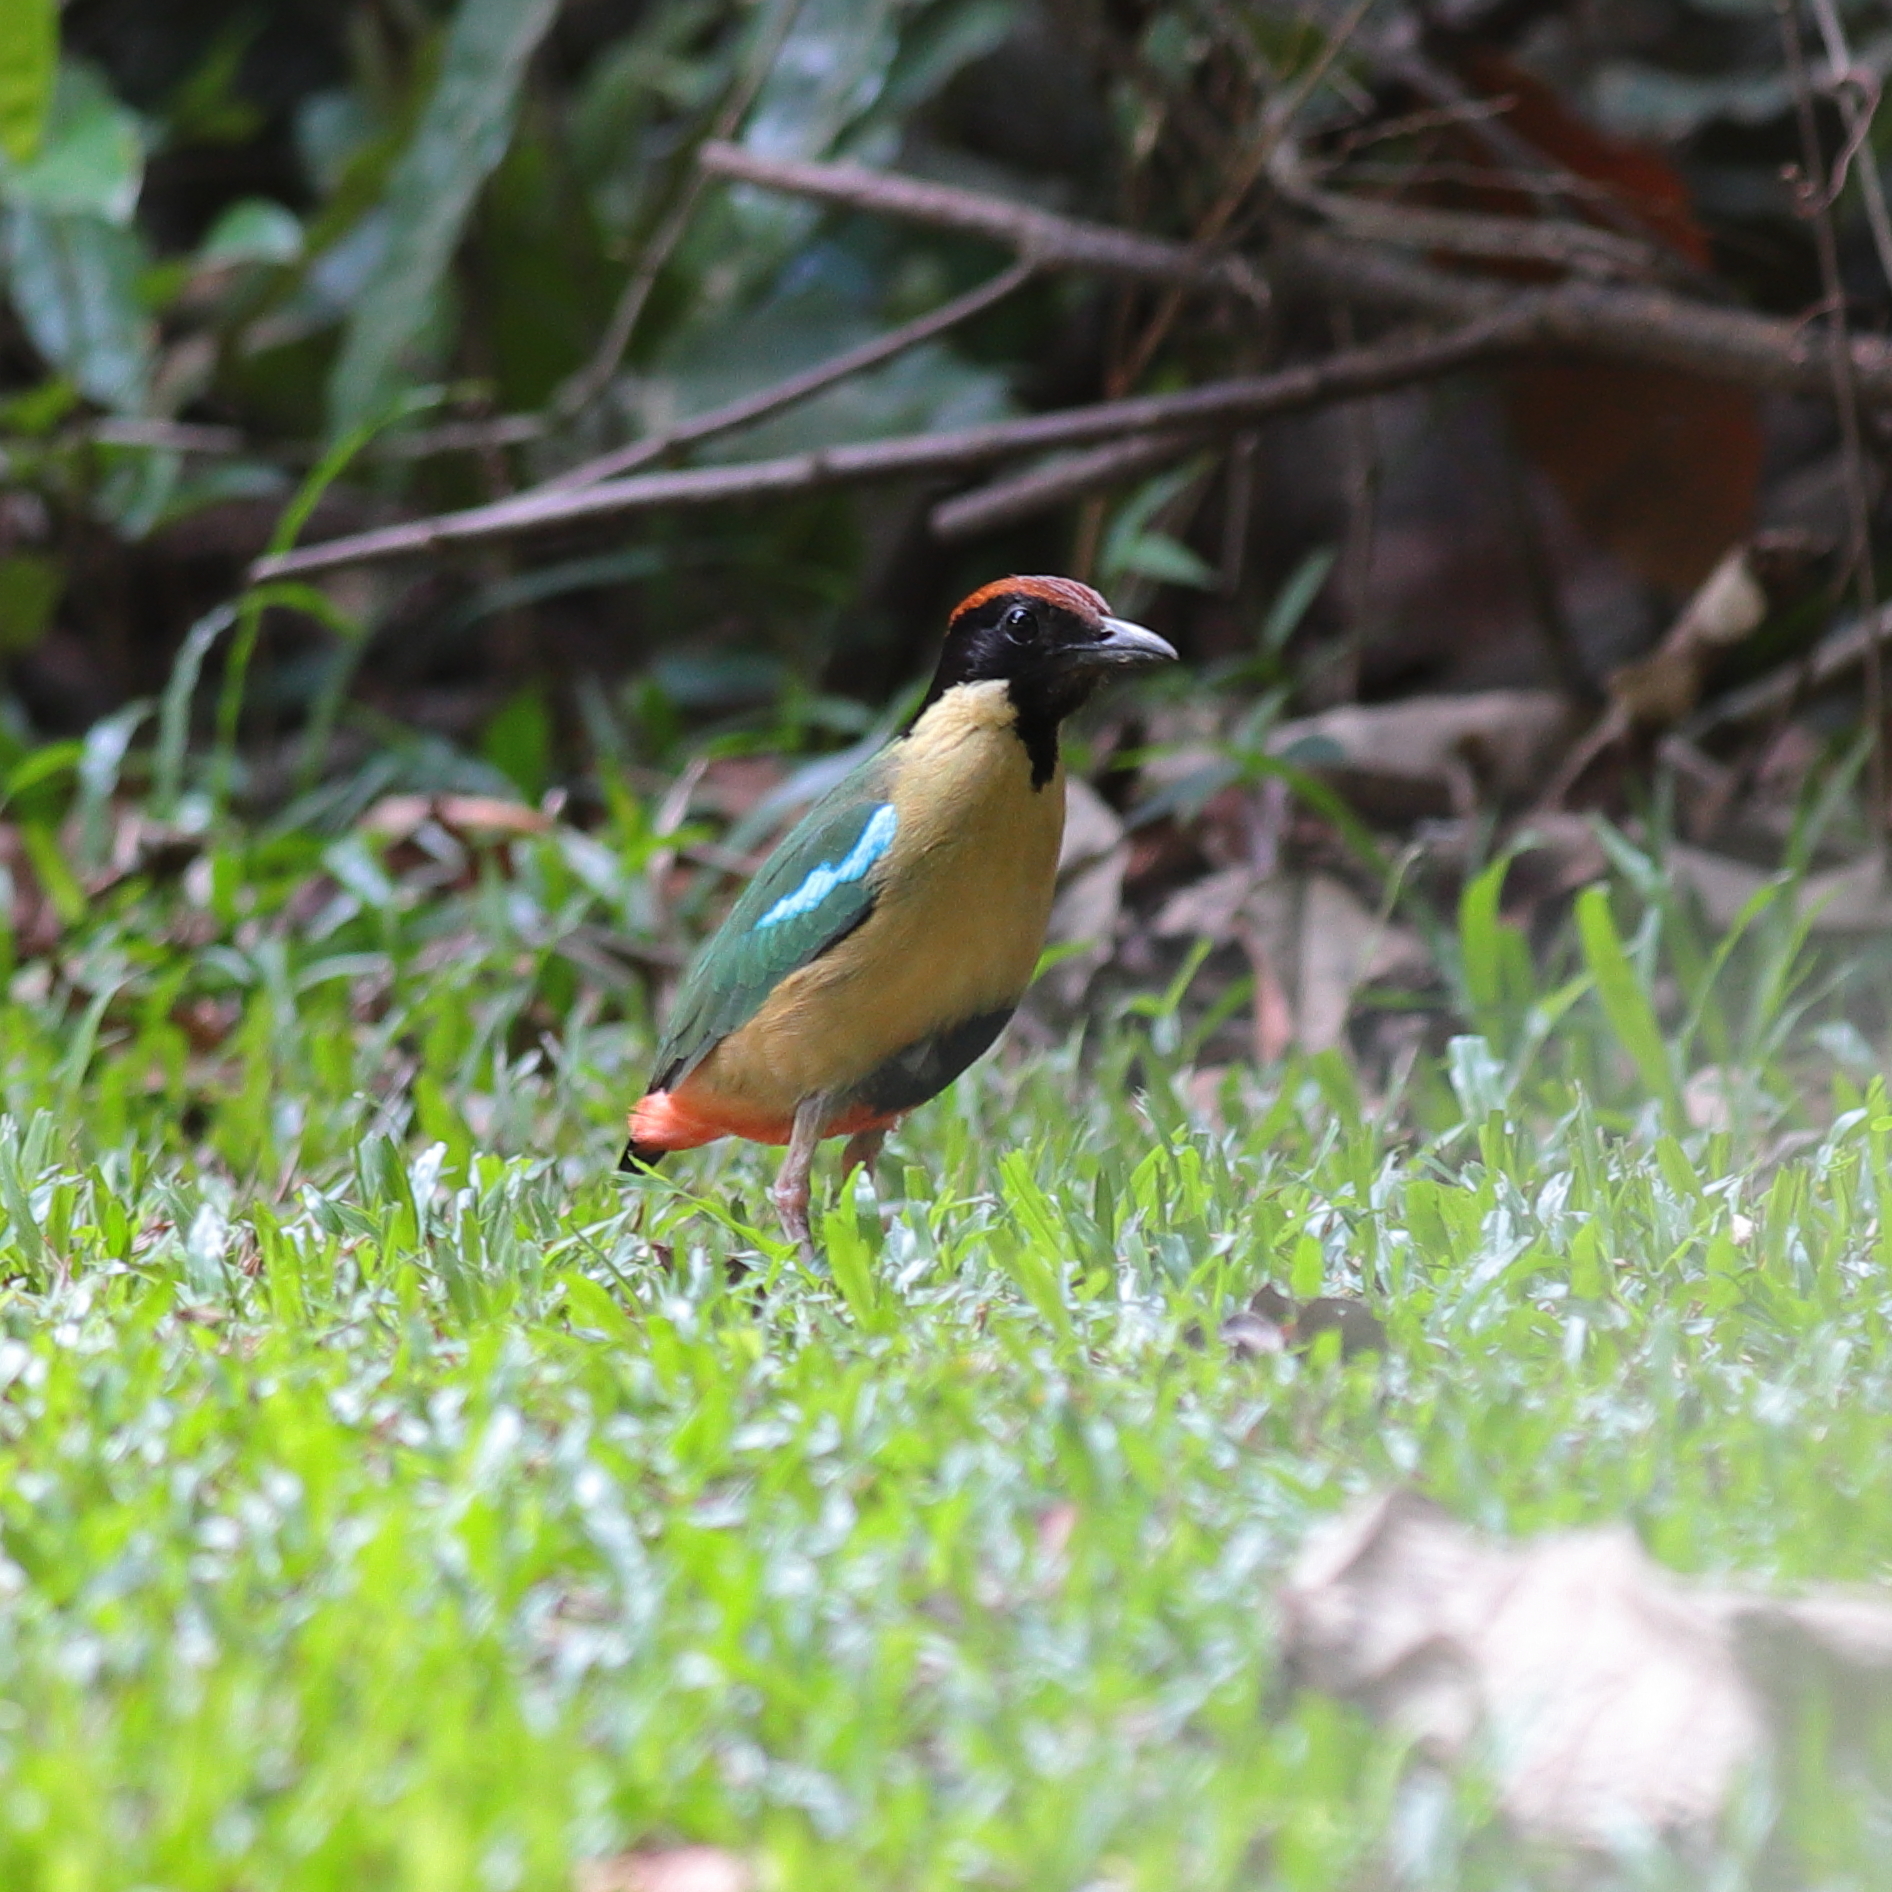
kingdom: Animalia
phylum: Chordata
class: Aves
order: Passeriformes
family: Pittidae
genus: Pitta
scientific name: Pitta versicolor
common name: Noisy pitta
